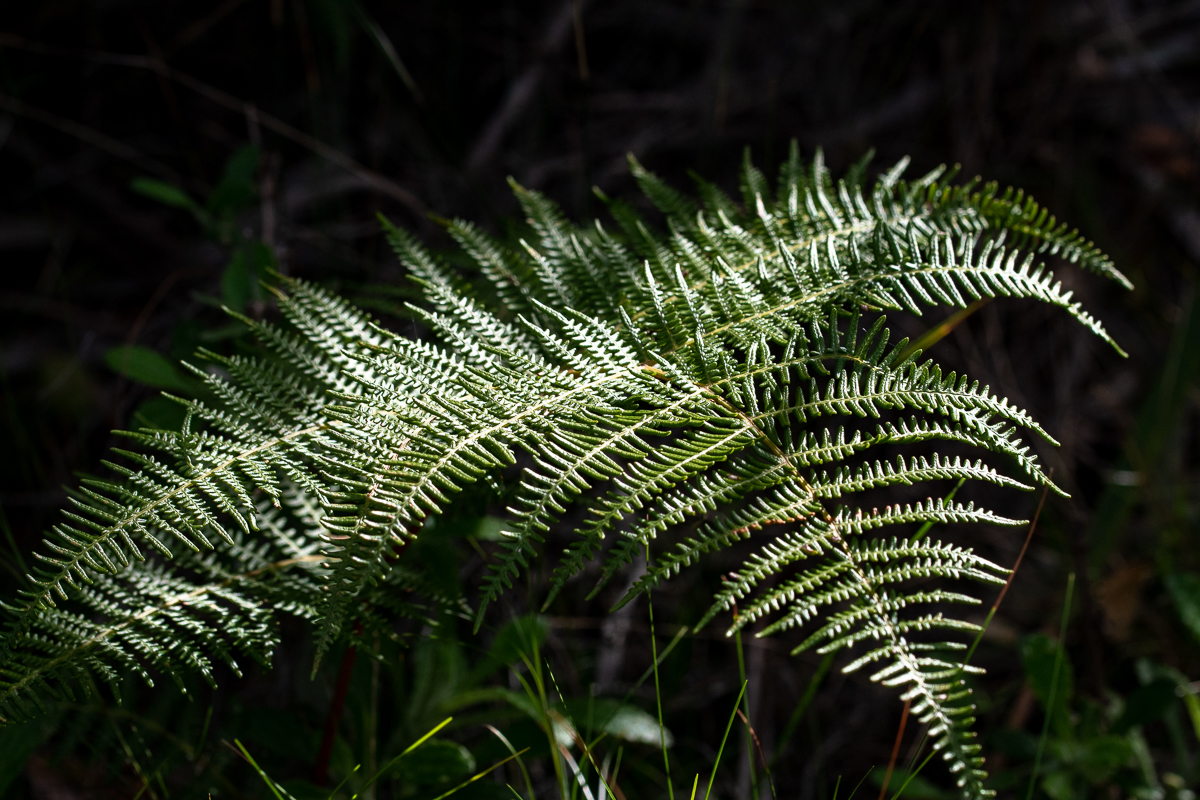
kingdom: Plantae
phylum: Tracheophyta
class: Polypodiopsida
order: Polypodiales
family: Dennstaedtiaceae
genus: Pteridium
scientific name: Pteridium aquilinum
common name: Bracken
